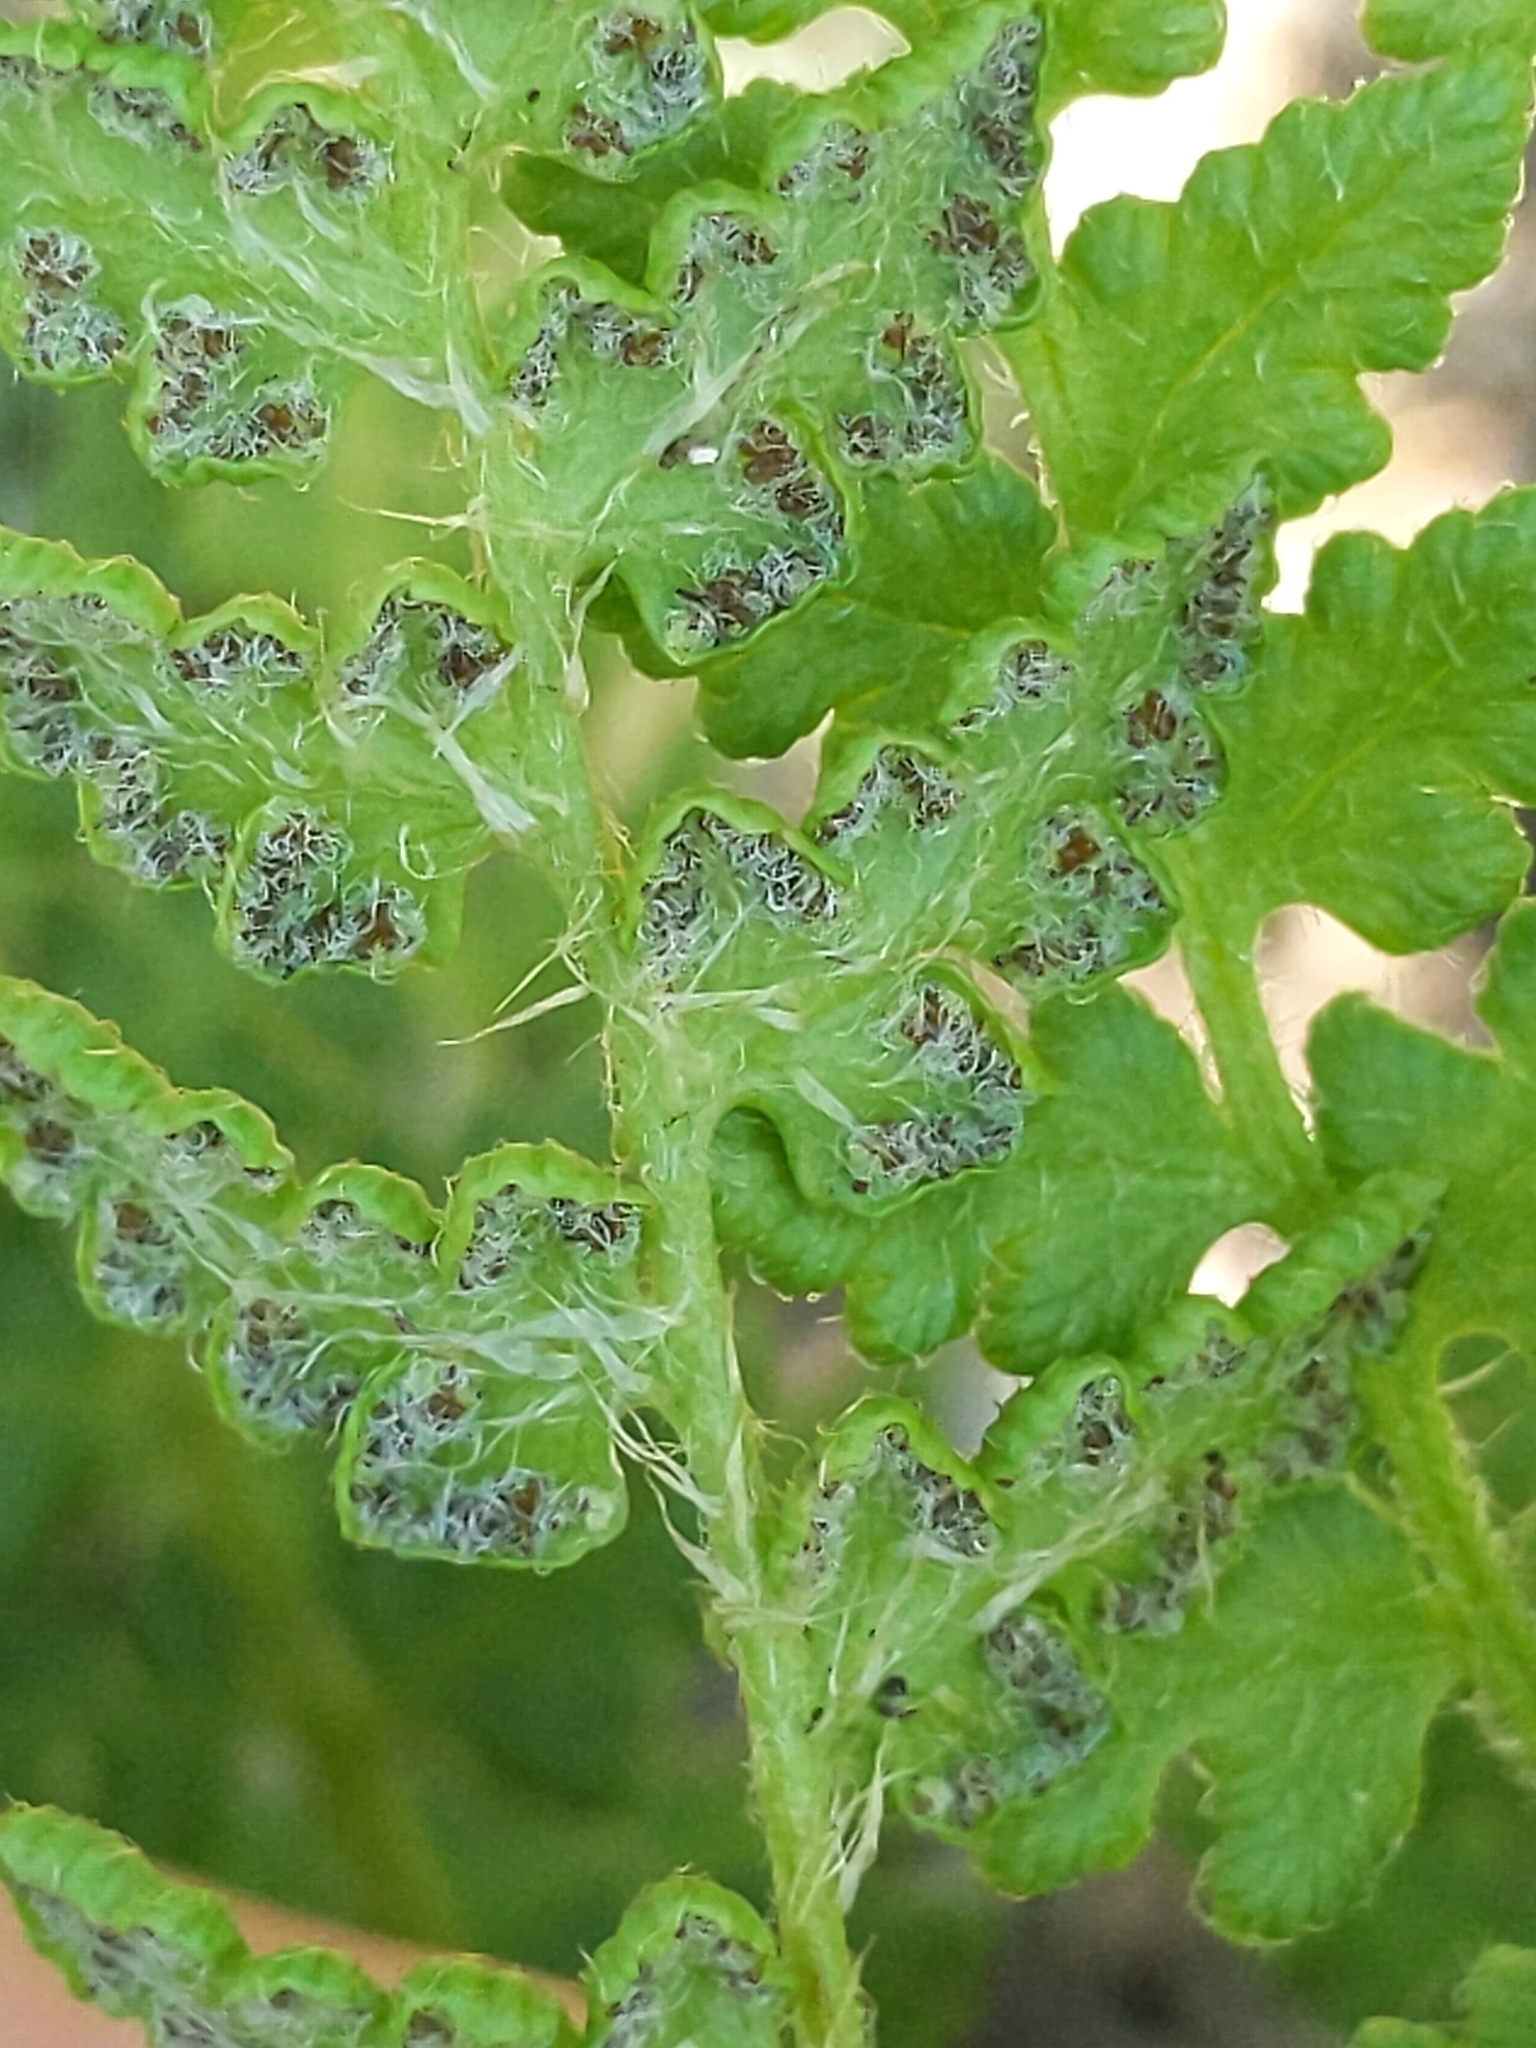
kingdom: Plantae
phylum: Tracheophyta
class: Polypodiopsida
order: Polypodiales
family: Woodsiaceae
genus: Woodsia
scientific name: Woodsia ilvensis
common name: Fragrant woodsia
